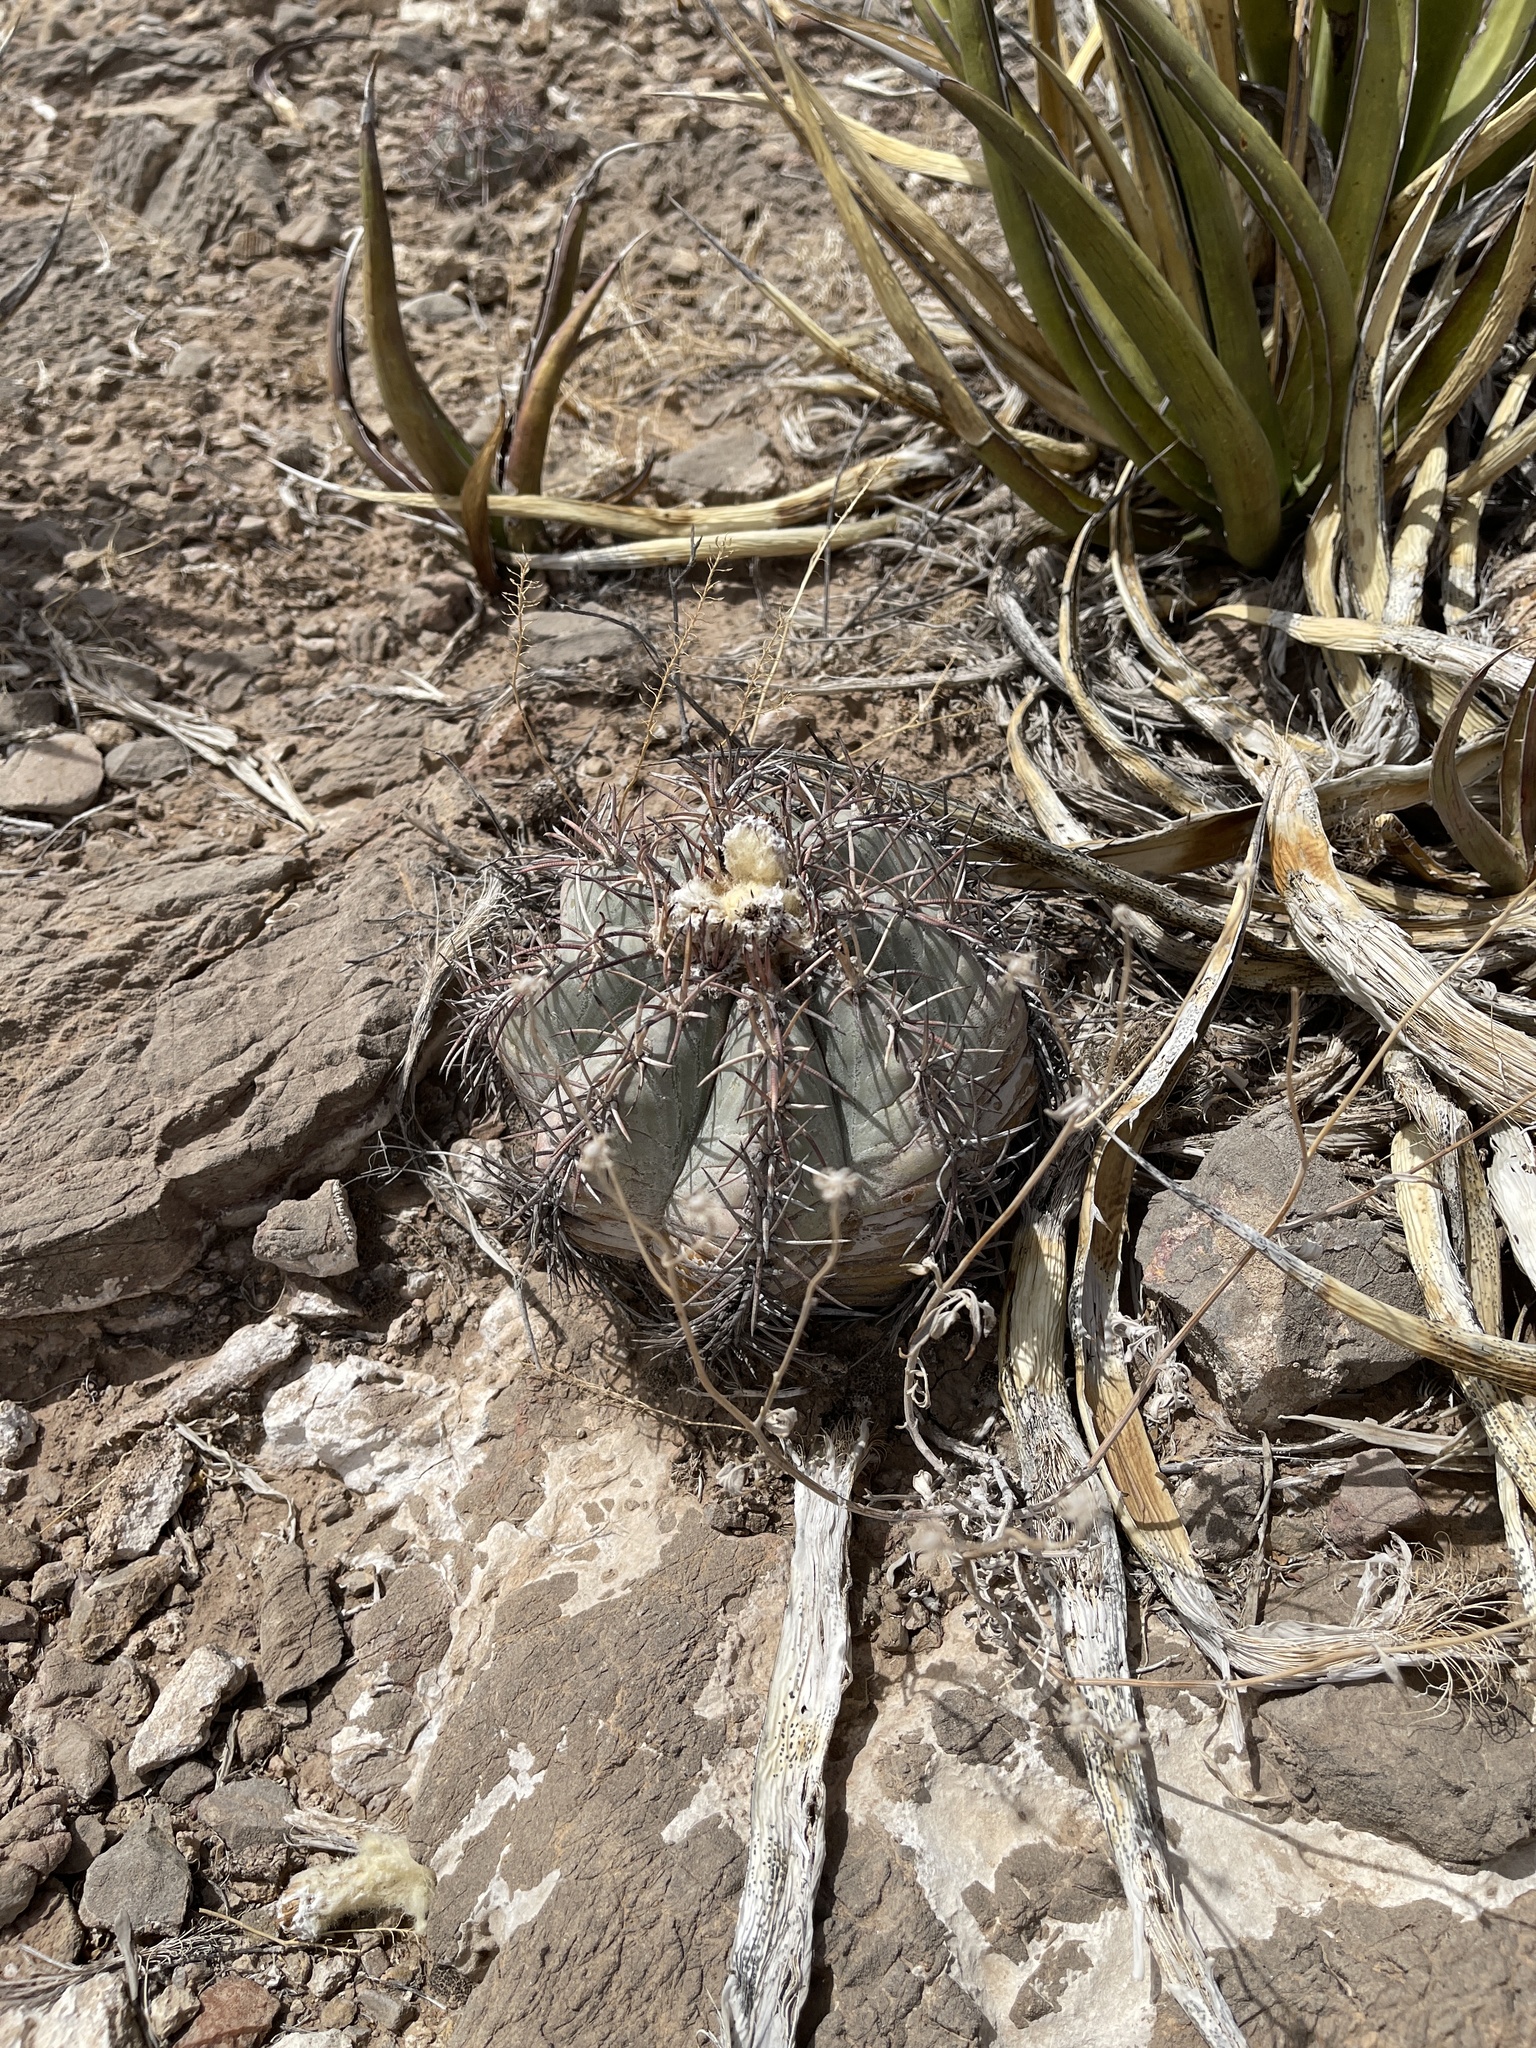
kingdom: Plantae
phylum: Tracheophyta
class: Magnoliopsida
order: Caryophyllales
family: Cactaceae
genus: Echinocactus
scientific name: Echinocactus horizonthalonius
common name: Devilshead
